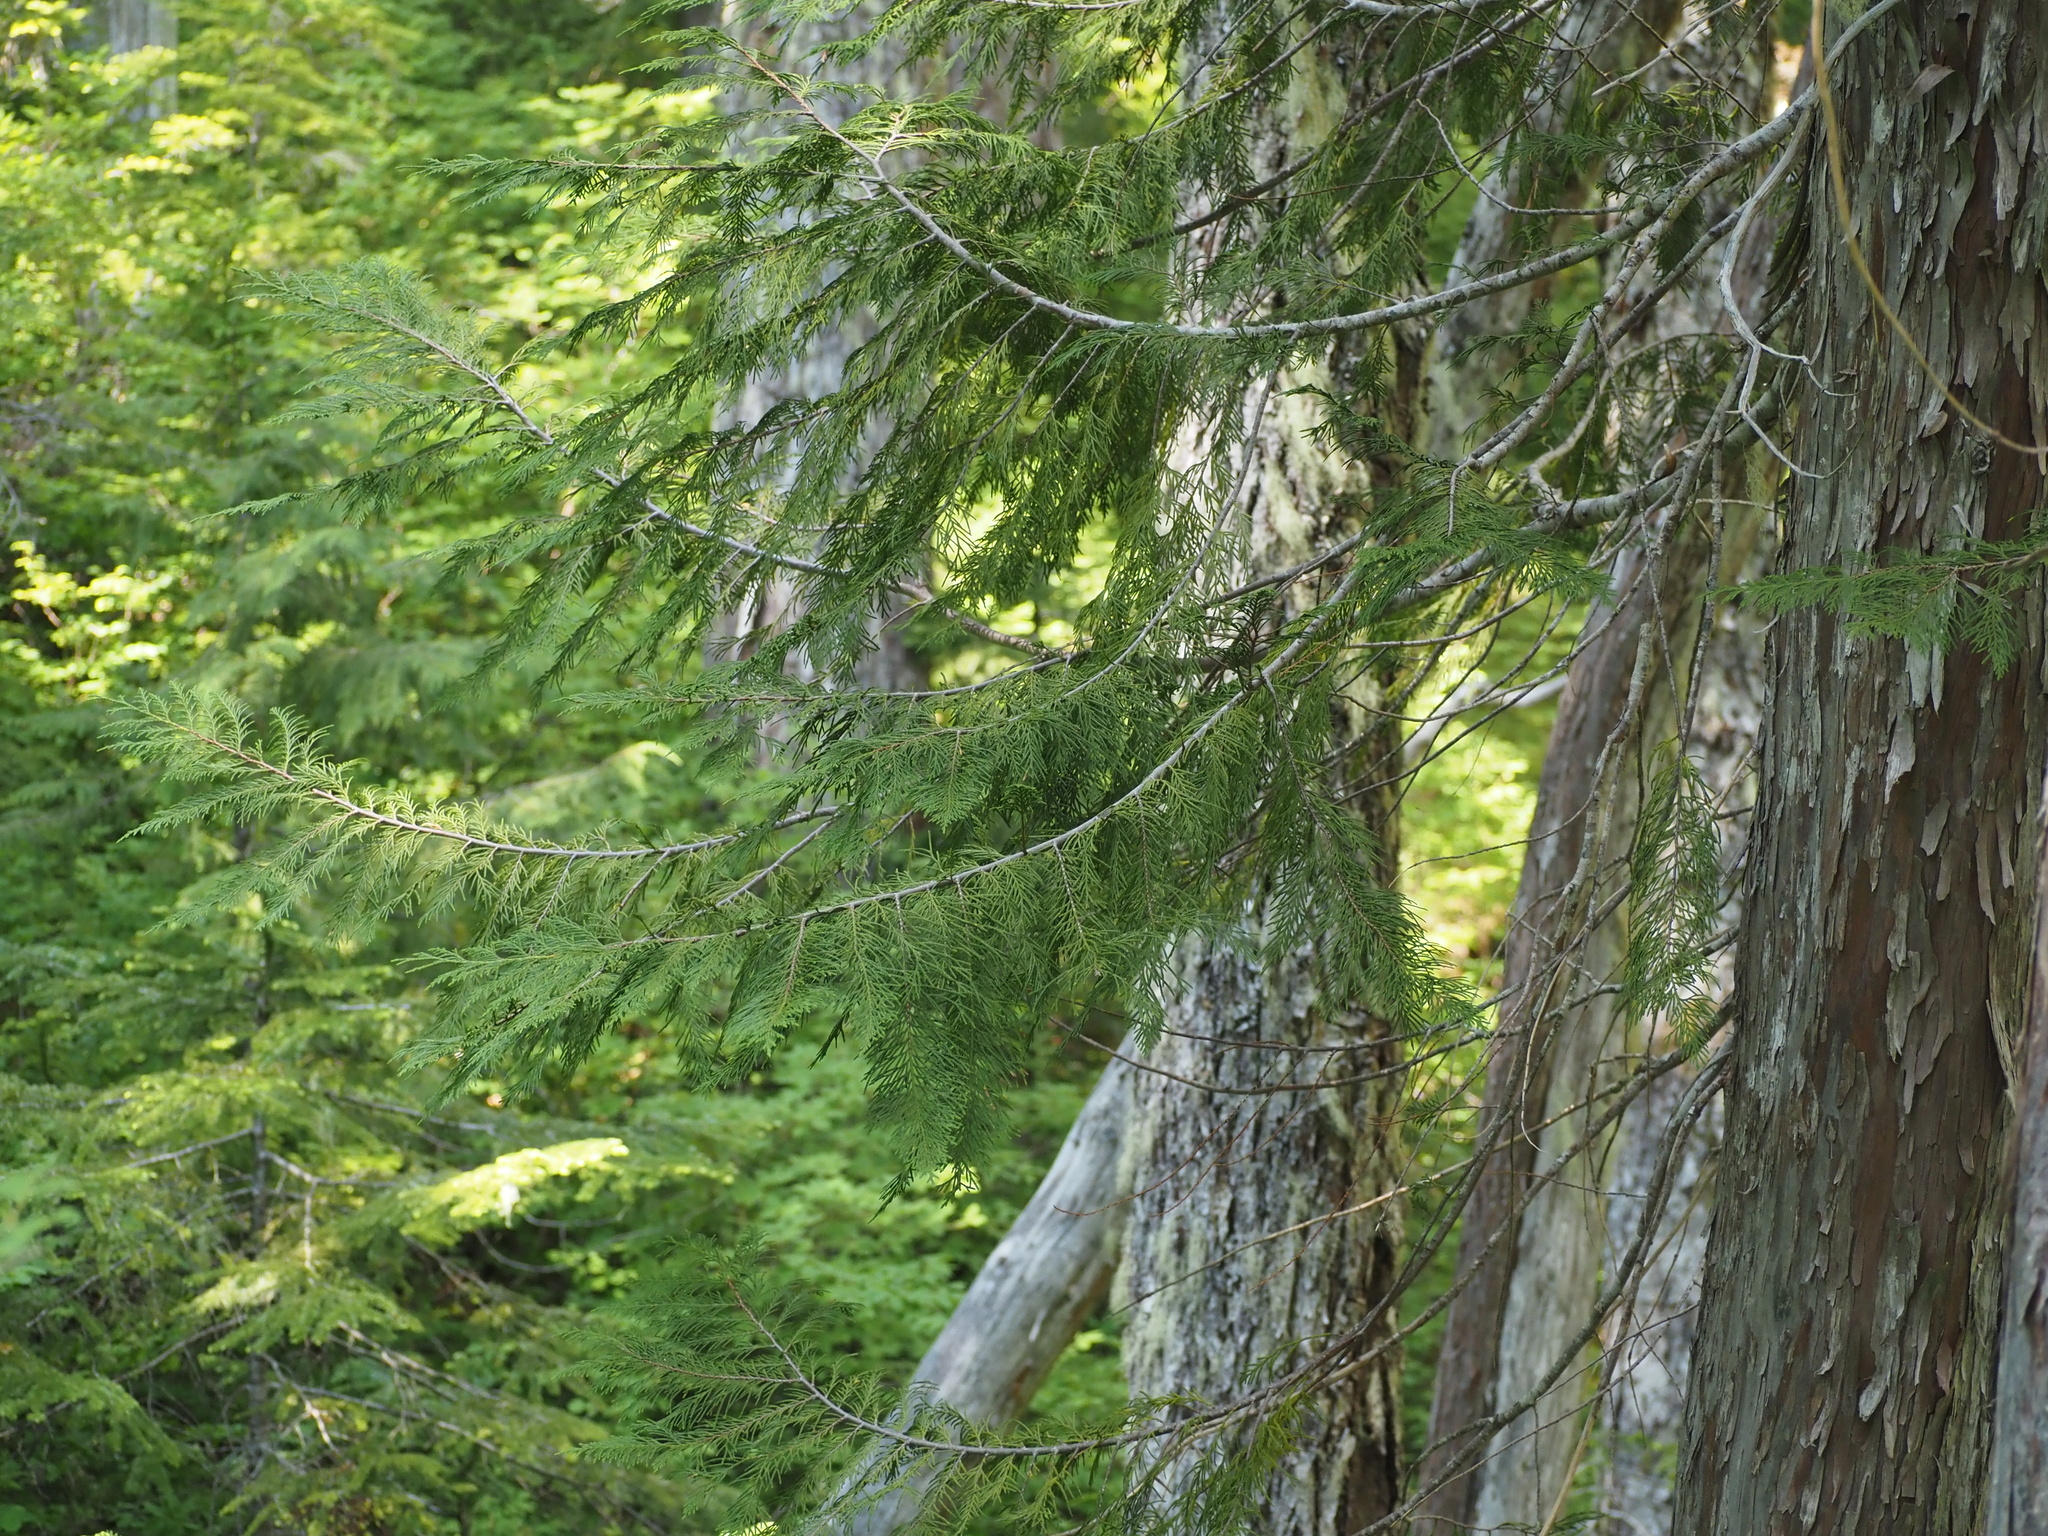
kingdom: Plantae
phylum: Tracheophyta
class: Pinopsida
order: Pinales
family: Cupressaceae
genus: Xanthocyparis
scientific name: Xanthocyparis nootkatensis
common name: Nootka cypress
